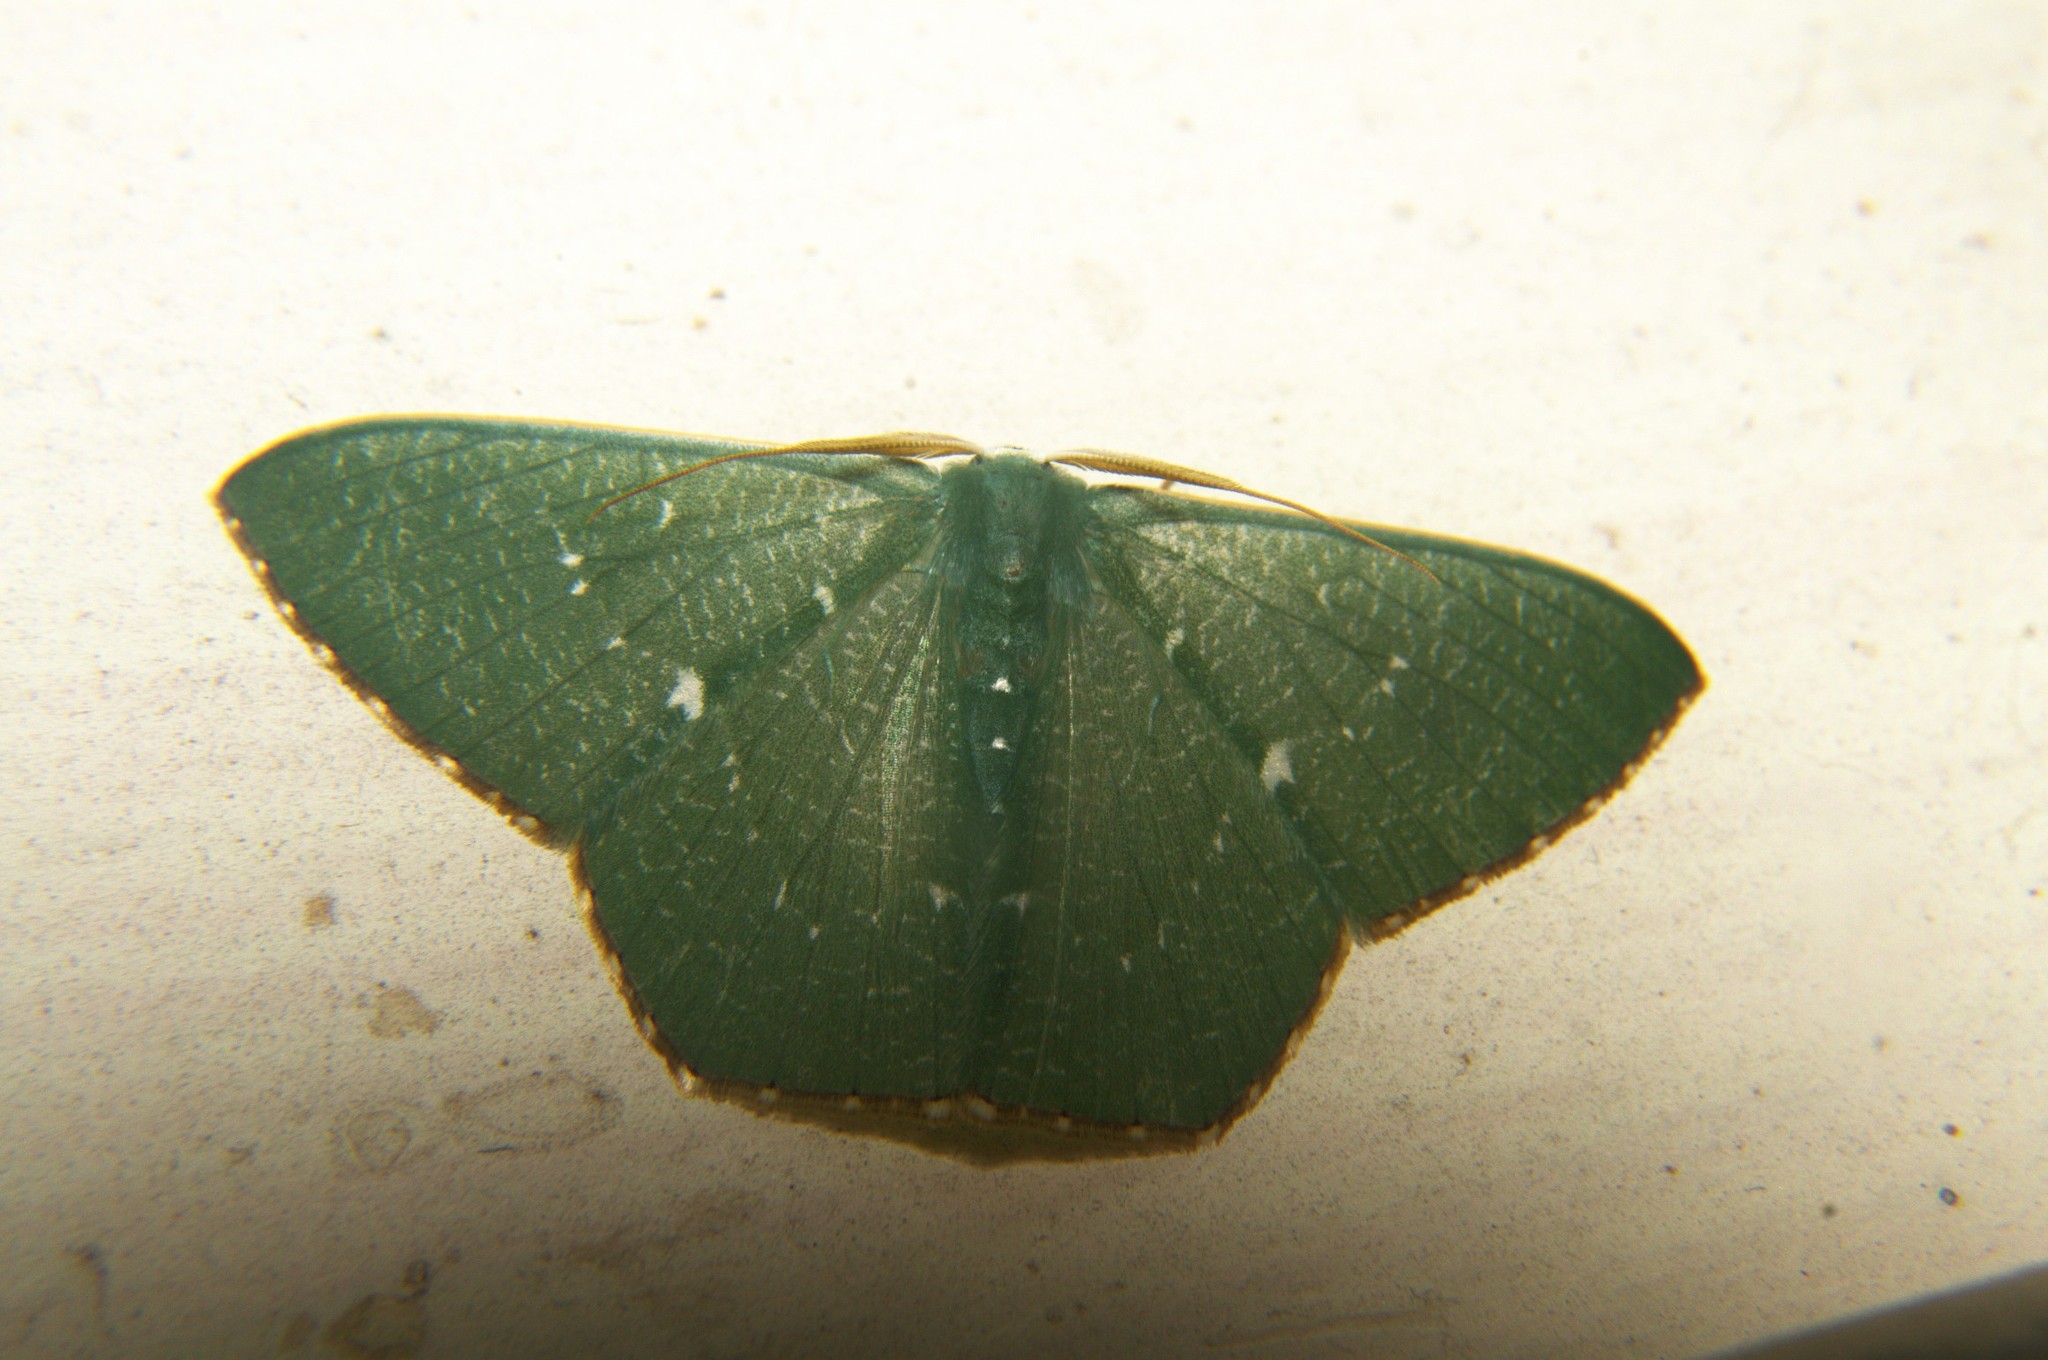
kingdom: Animalia
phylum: Arthropoda
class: Insecta
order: Lepidoptera
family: Geometridae
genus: Orothalassodes
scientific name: Orothalassodes hypocrites
